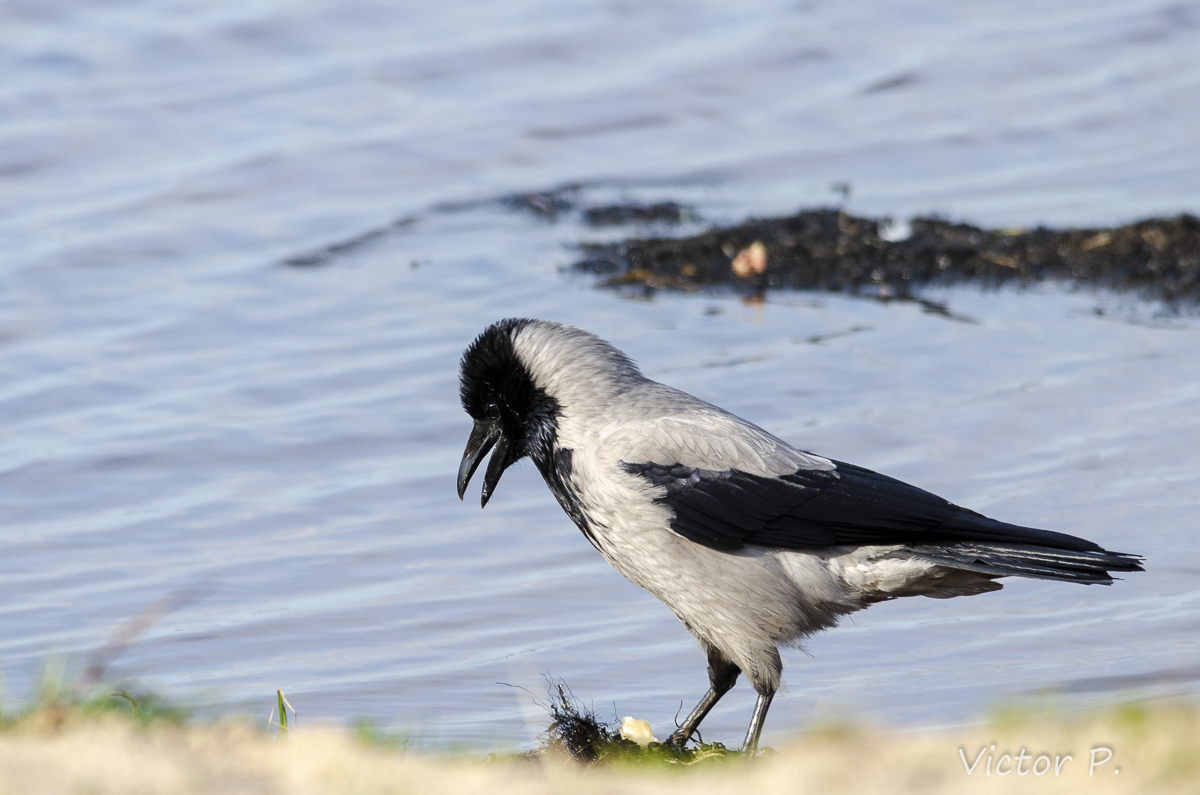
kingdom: Animalia
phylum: Chordata
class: Aves
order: Passeriformes
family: Corvidae
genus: Corvus
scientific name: Corvus cornix
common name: Hooded crow
